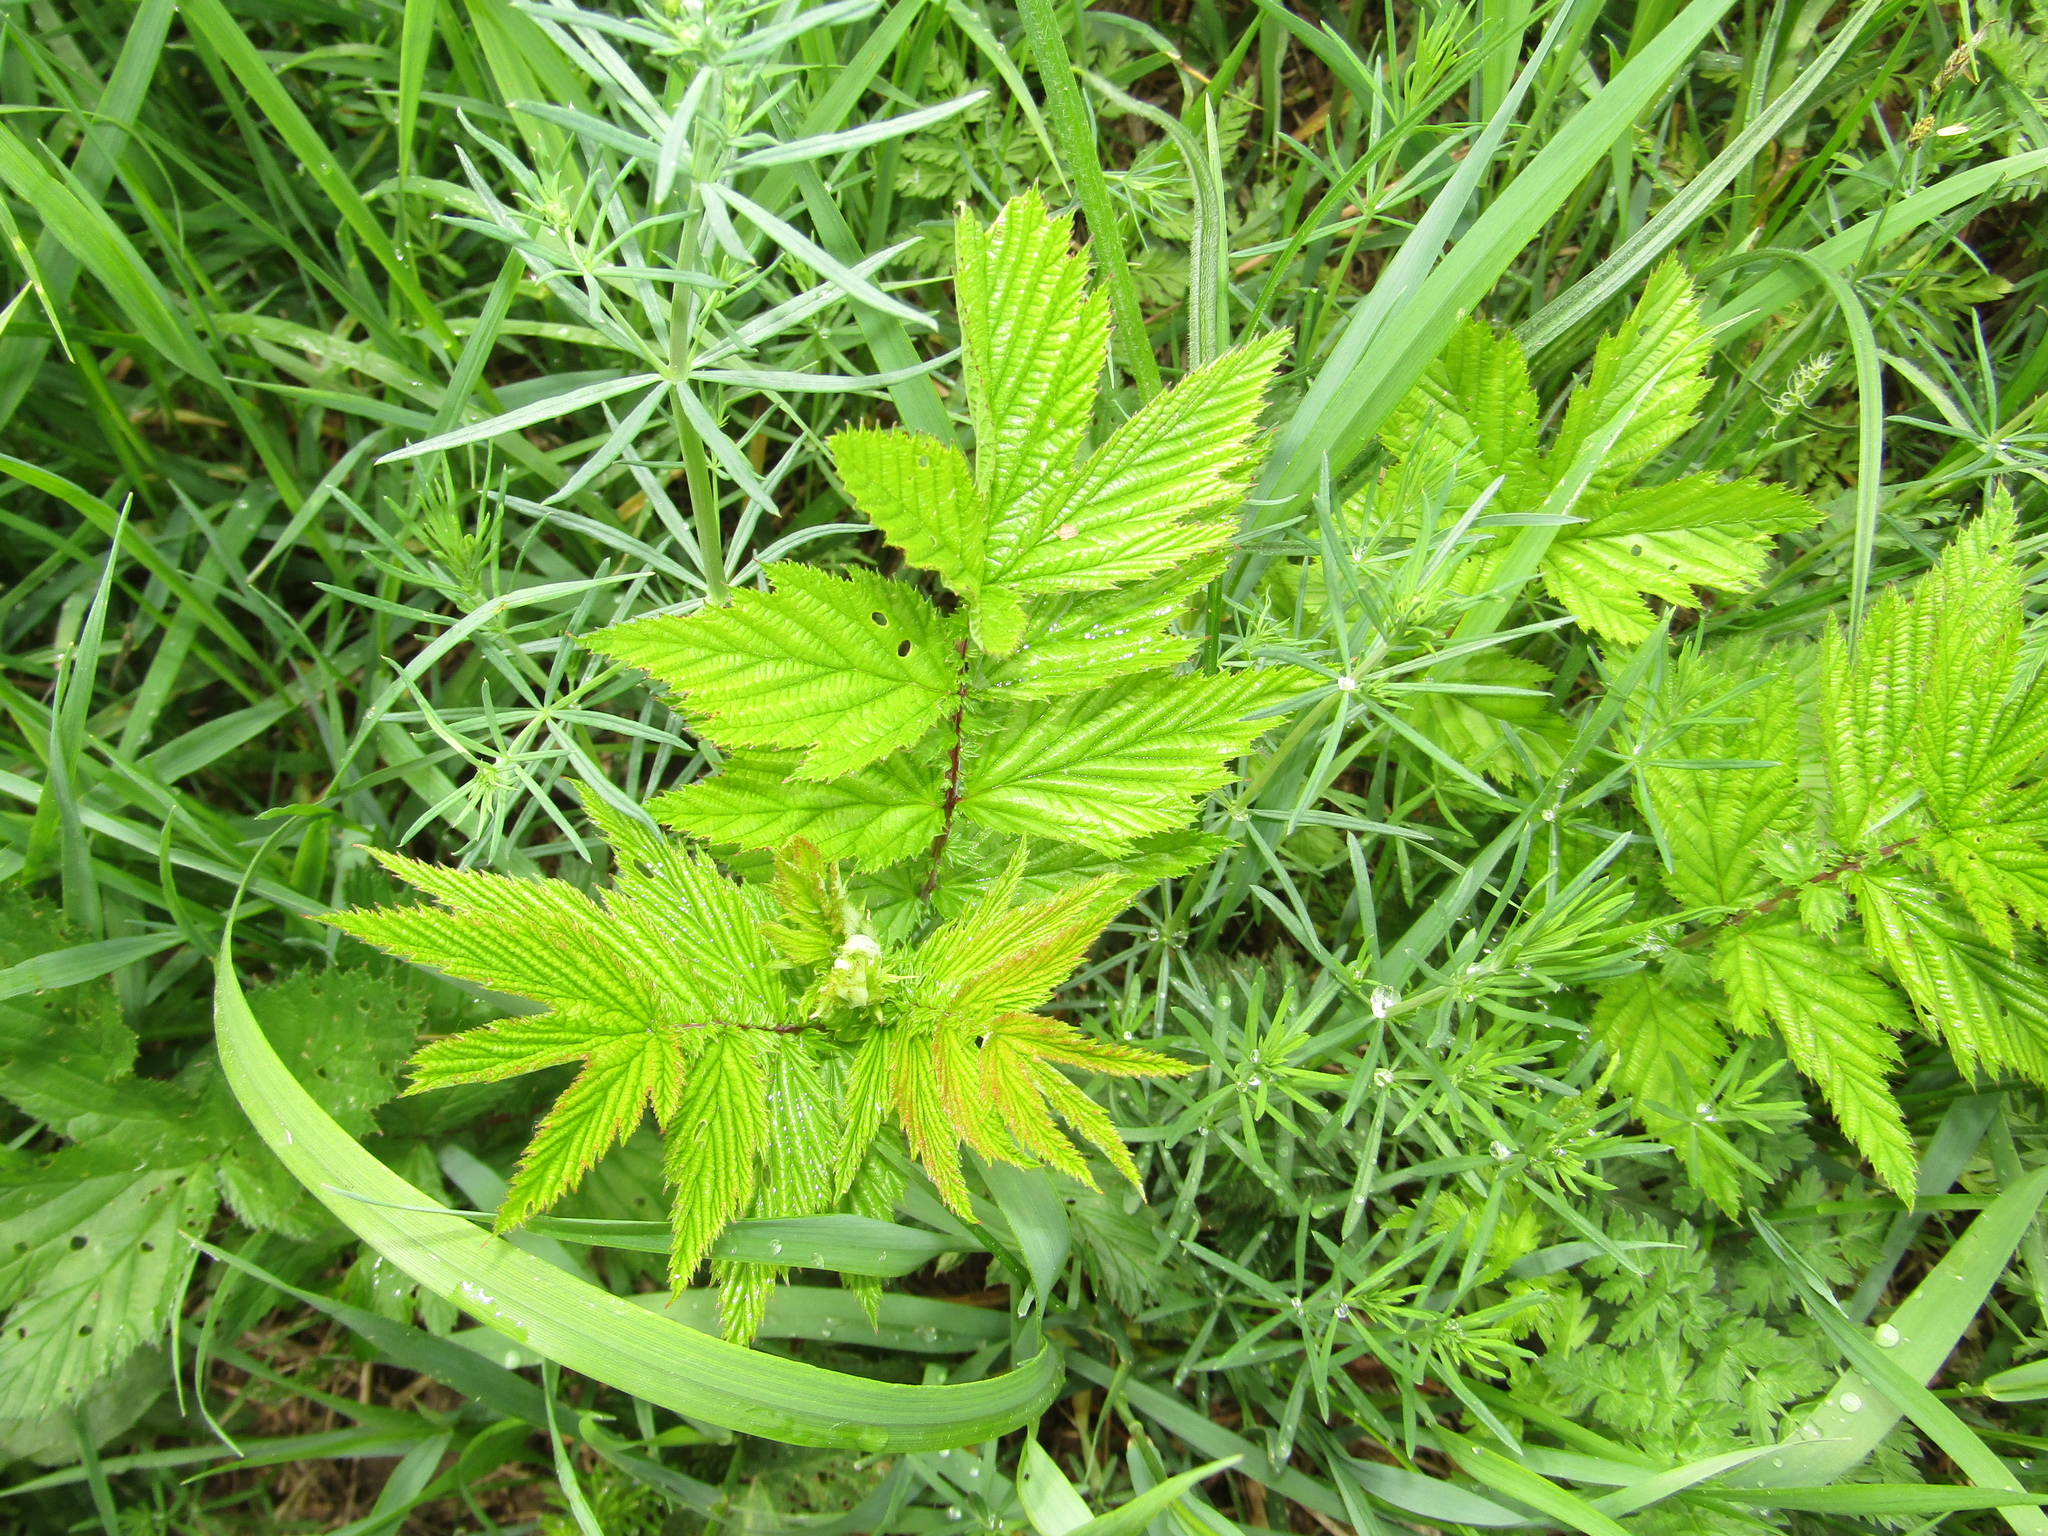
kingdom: Plantae
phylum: Tracheophyta
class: Magnoliopsida
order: Rosales
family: Rosaceae
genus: Filipendula
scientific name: Filipendula ulmaria
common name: Meadowsweet
